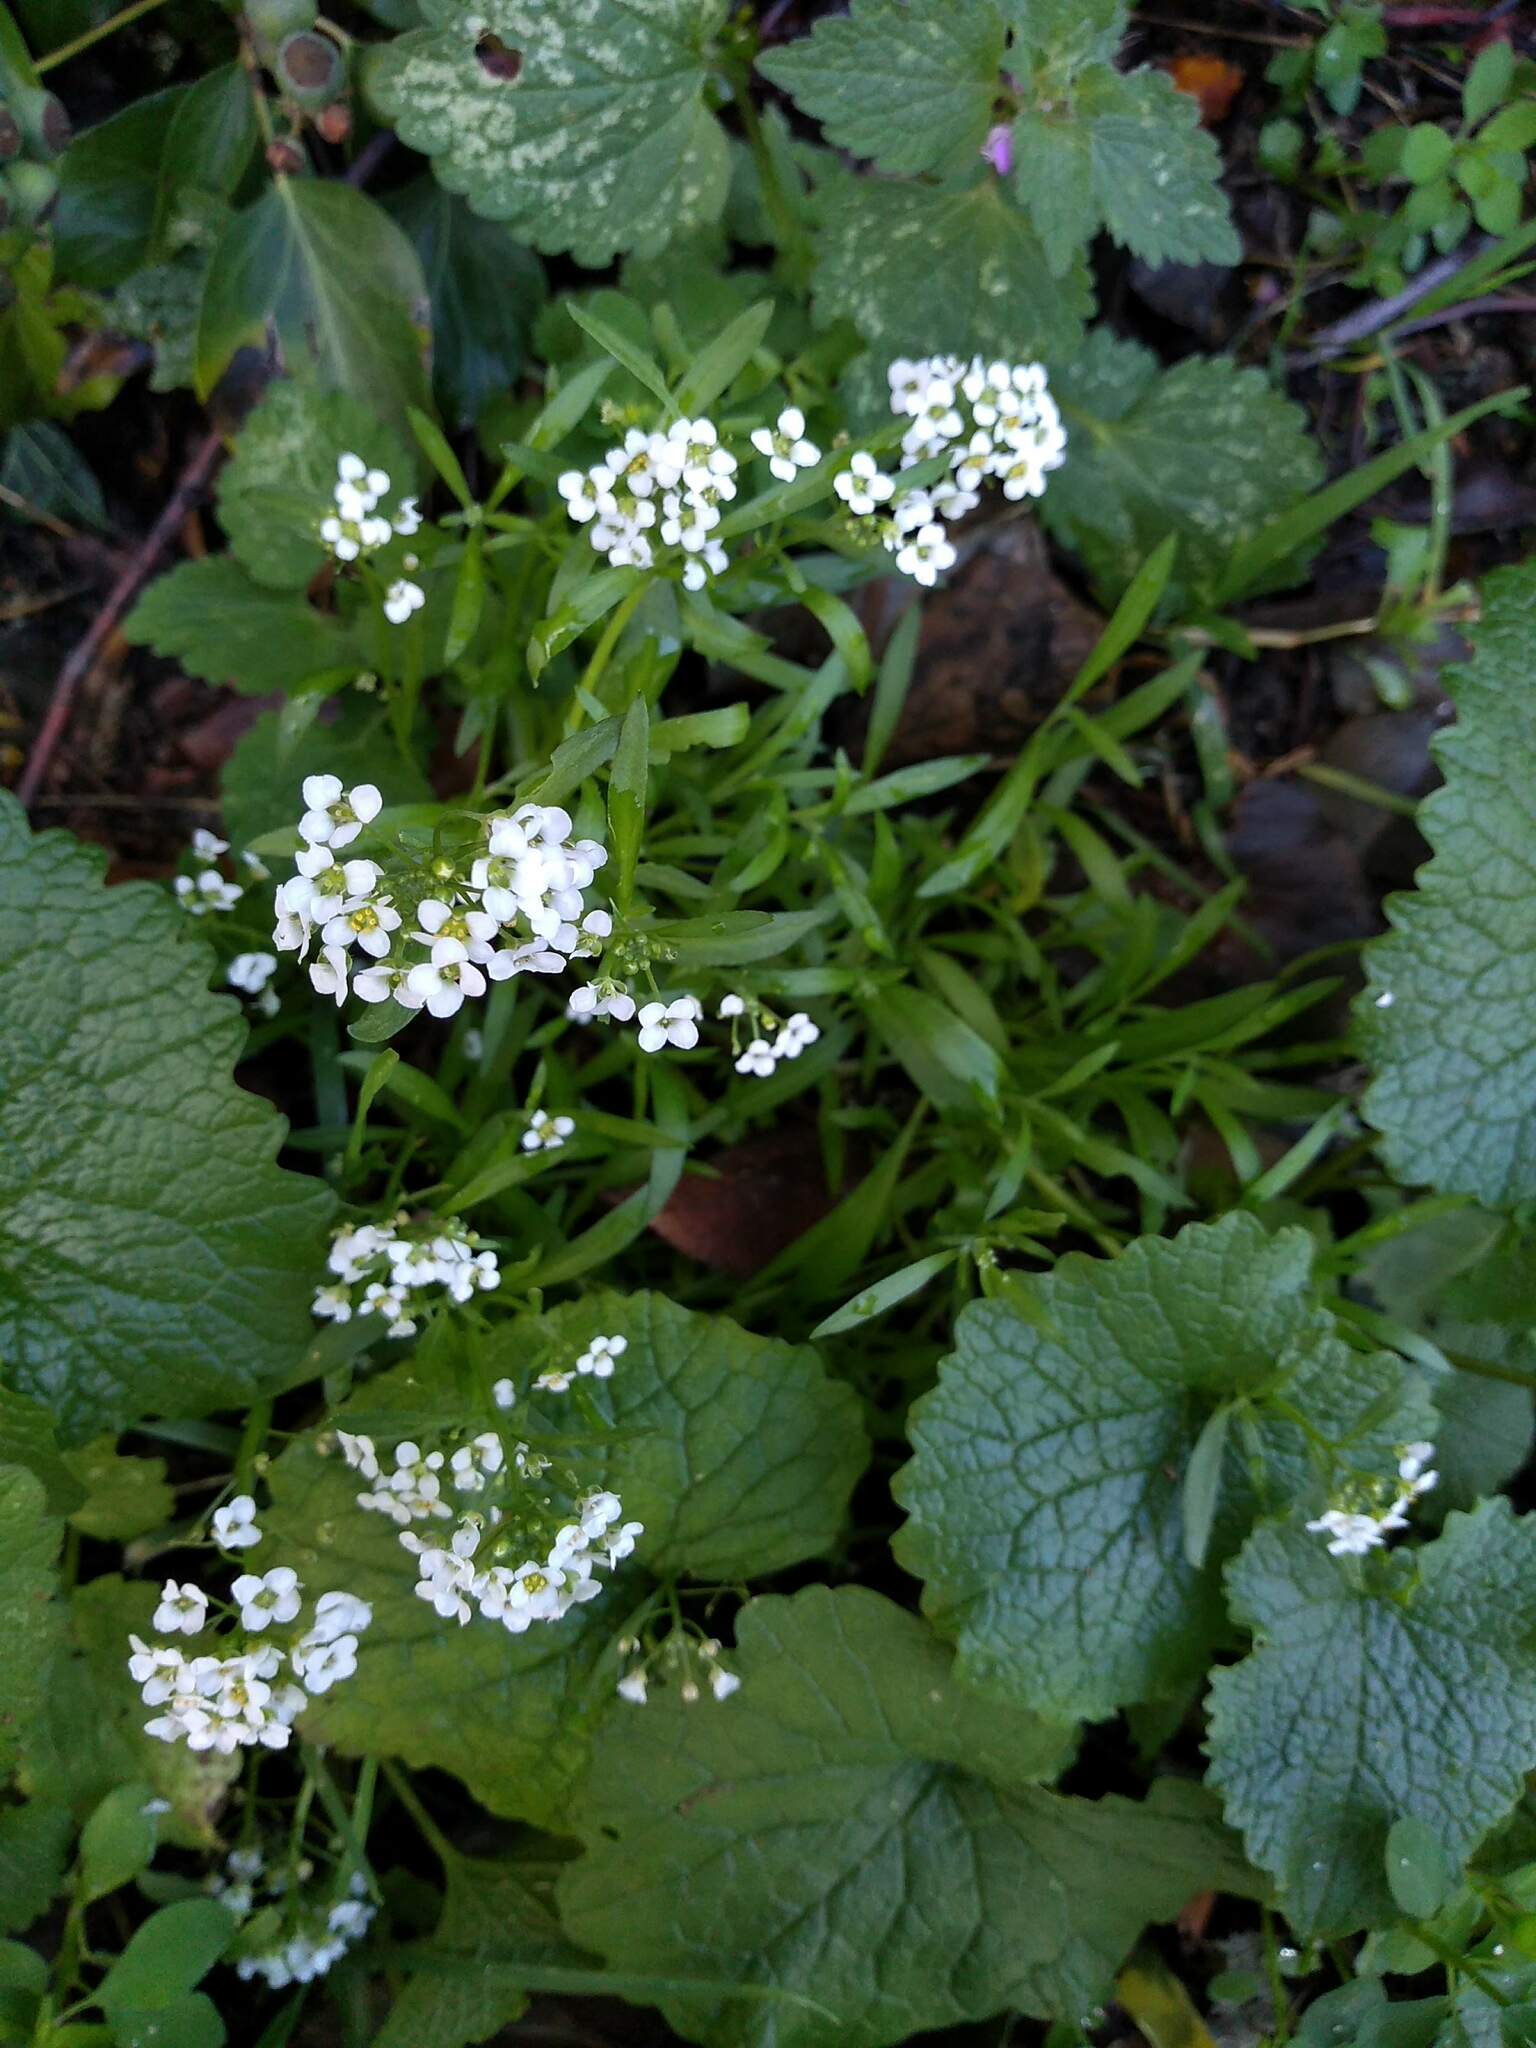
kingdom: Plantae
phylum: Tracheophyta
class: Magnoliopsida
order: Brassicales
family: Brassicaceae
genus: Lobularia
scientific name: Lobularia maritima
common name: Sweet alison
